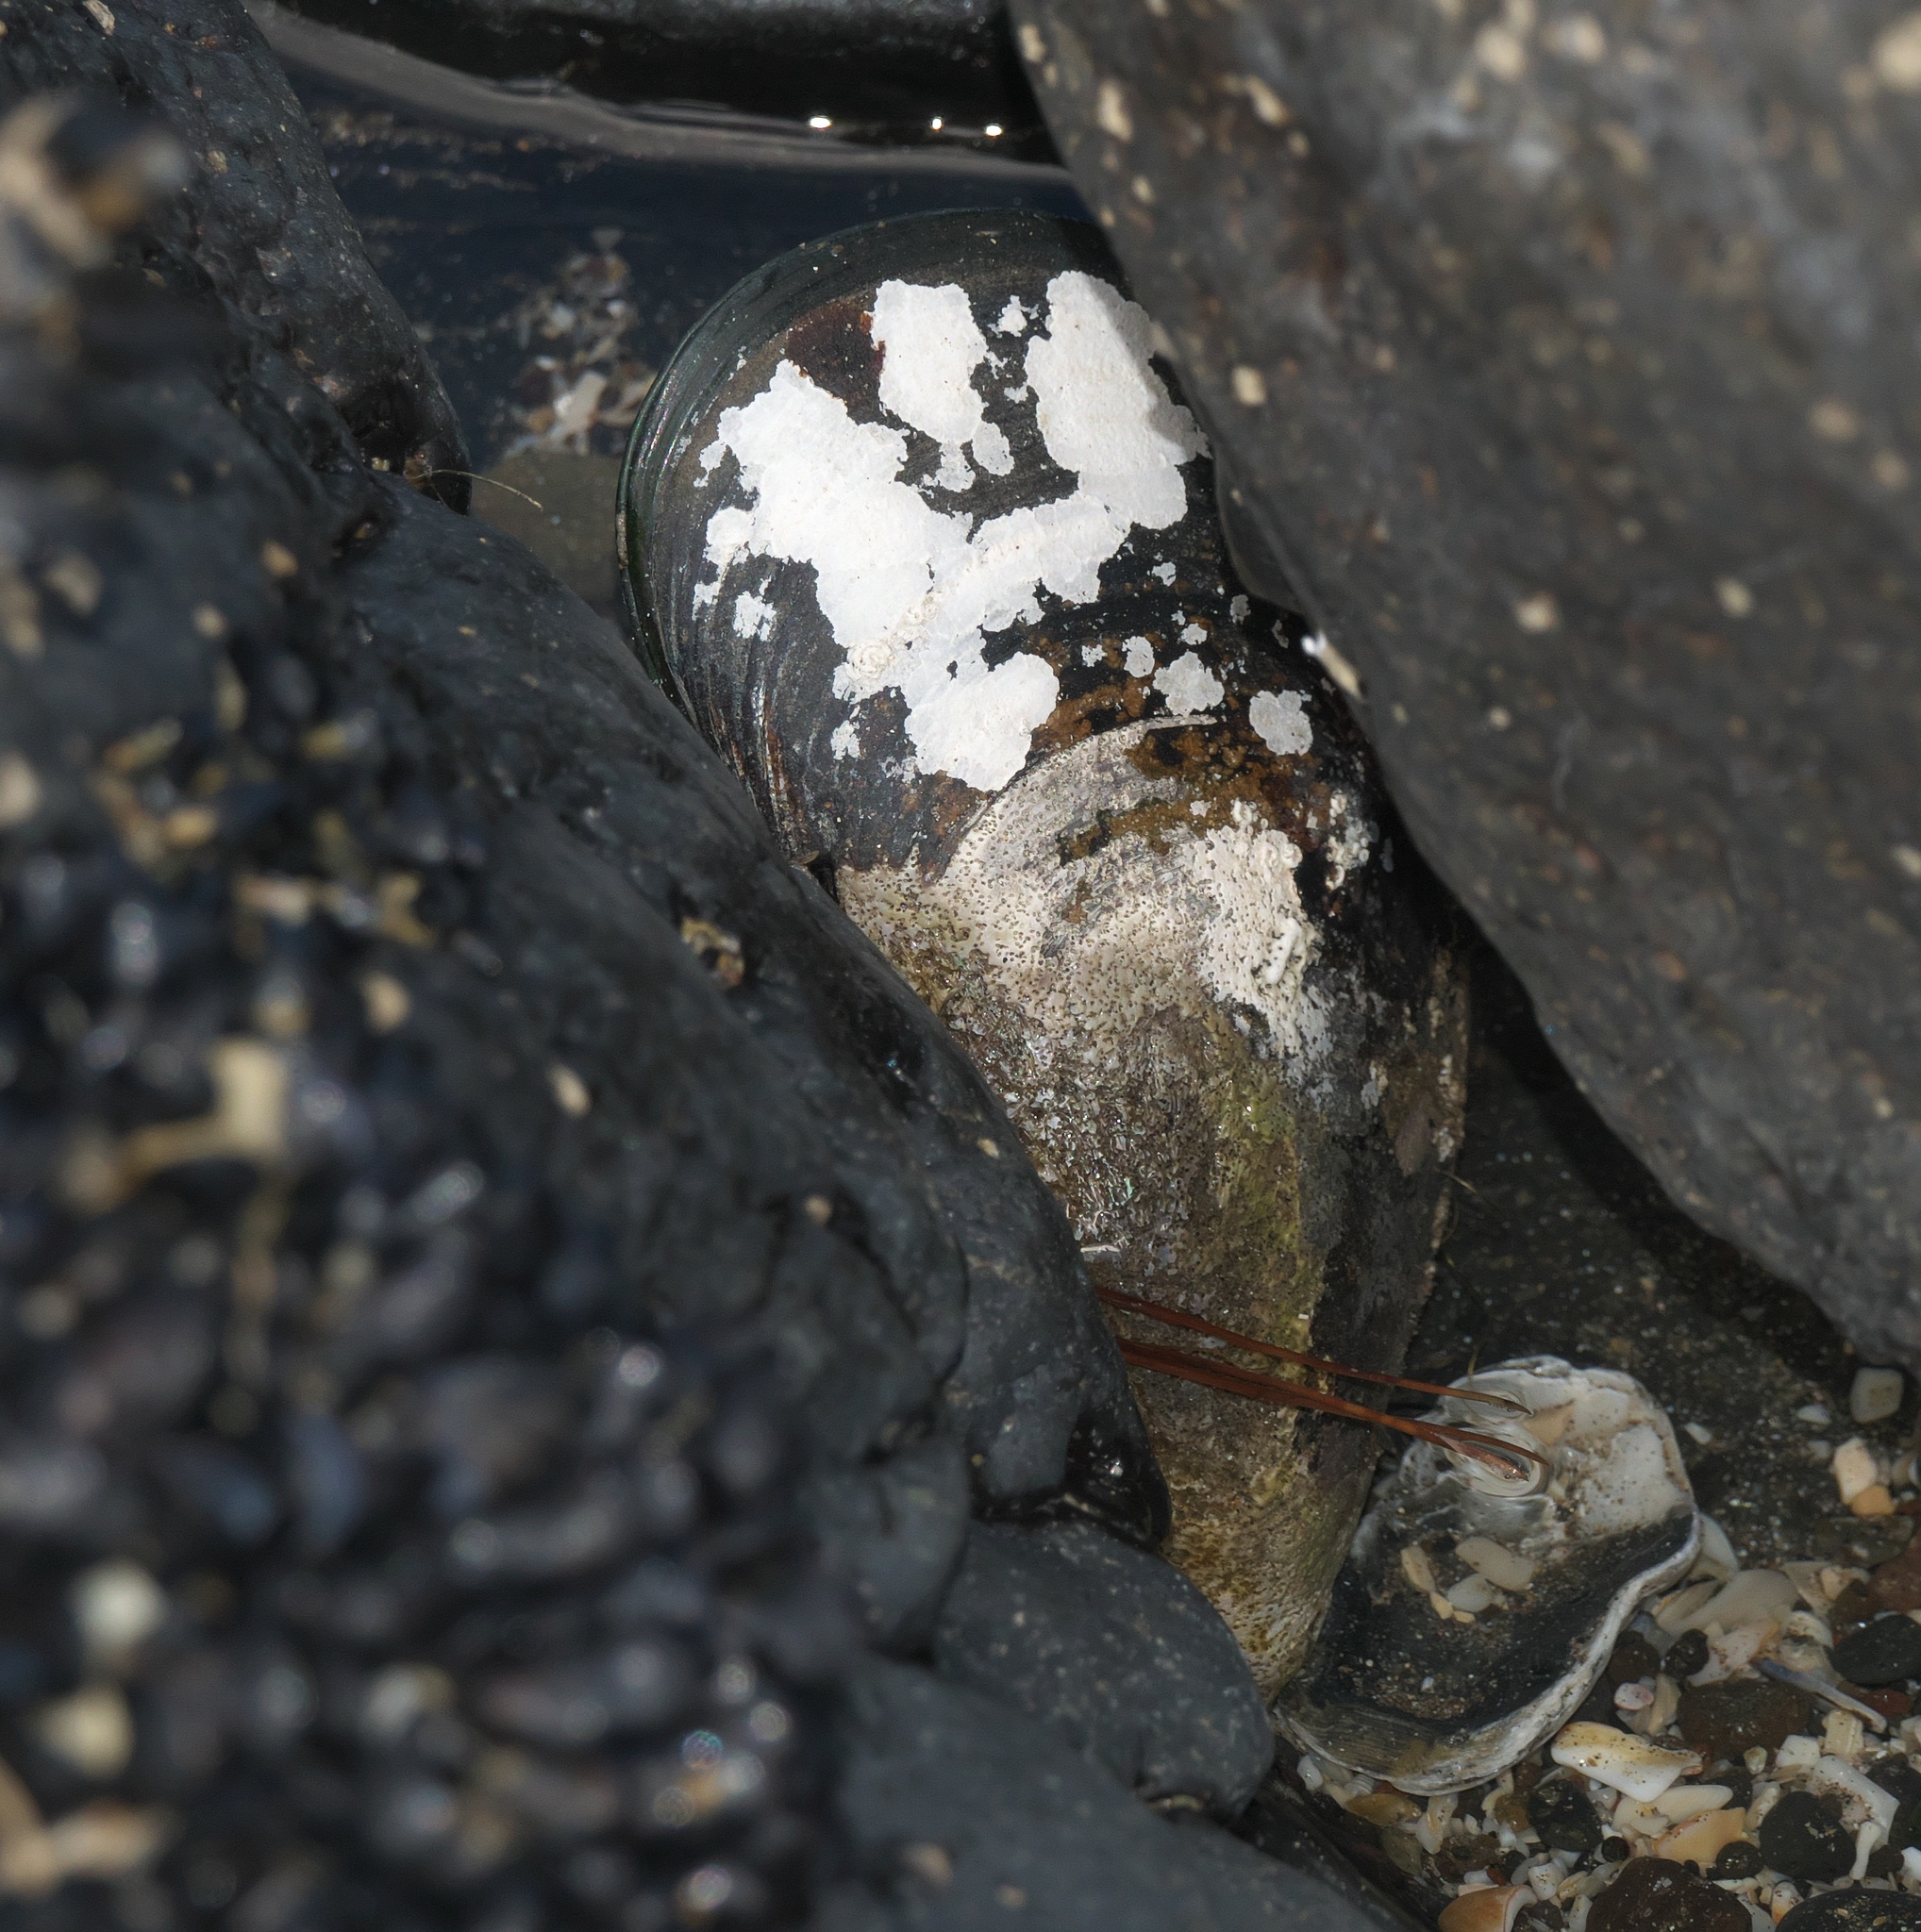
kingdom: Animalia
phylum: Mollusca
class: Bivalvia
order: Mytilida
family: Mytilidae
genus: Perna
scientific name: Perna canaliculus
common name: New zealand greenshelltm
